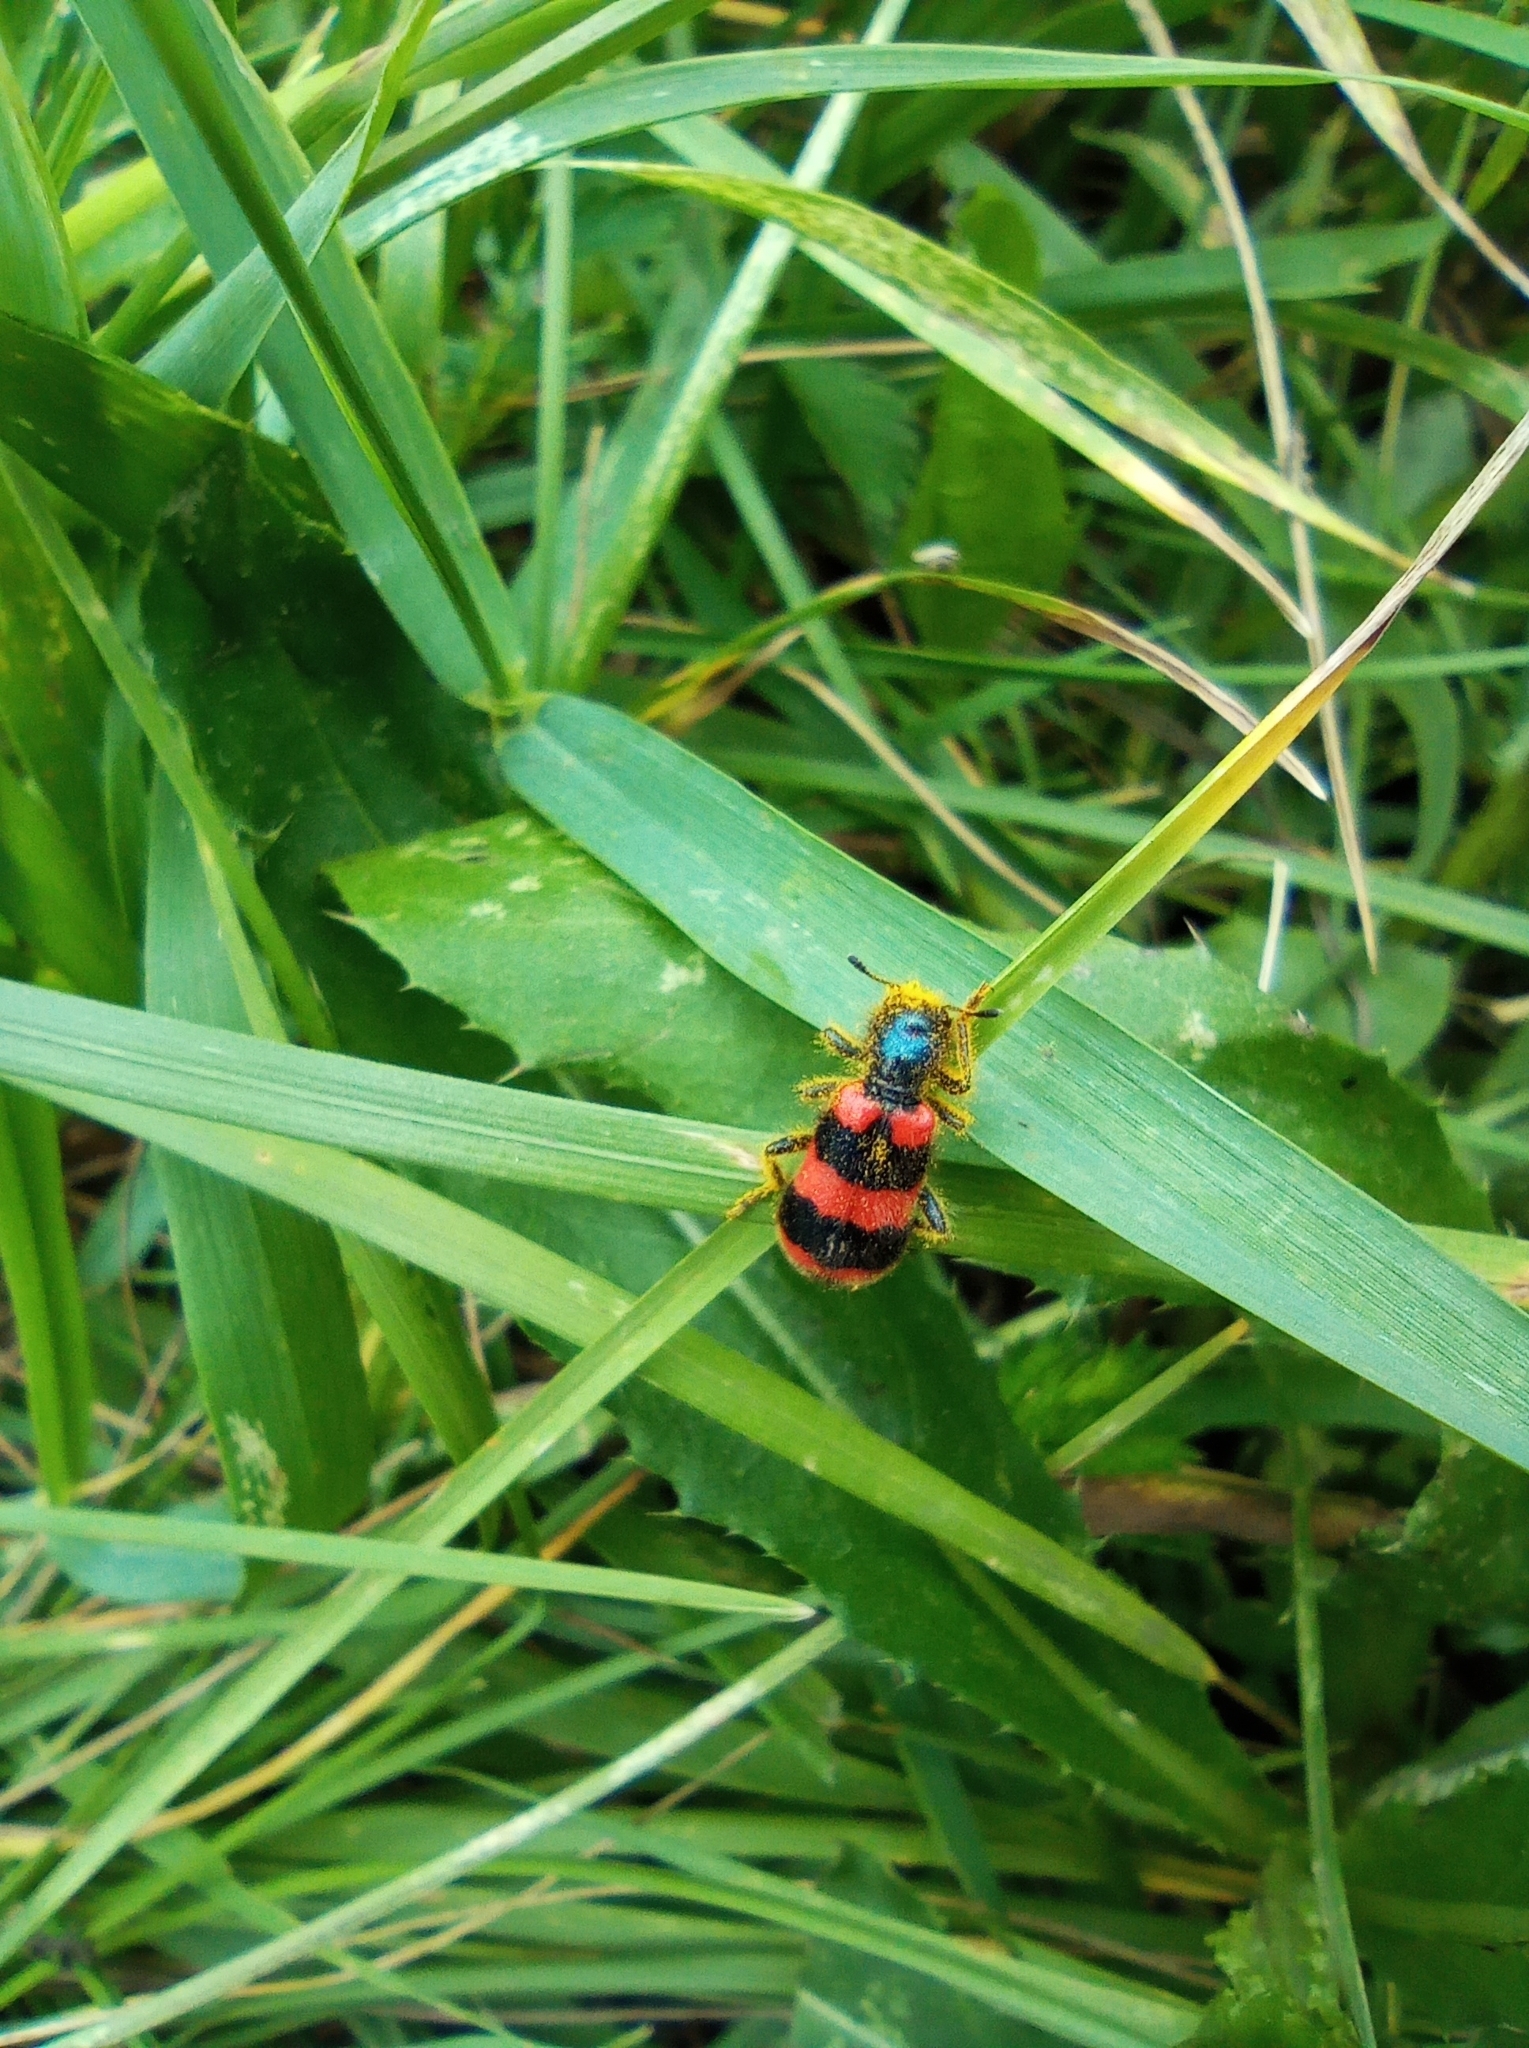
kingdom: Animalia
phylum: Arthropoda
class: Insecta
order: Coleoptera
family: Cleridae
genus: Trichodes
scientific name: Trichodes apiarius
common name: Bee-eating beetle
